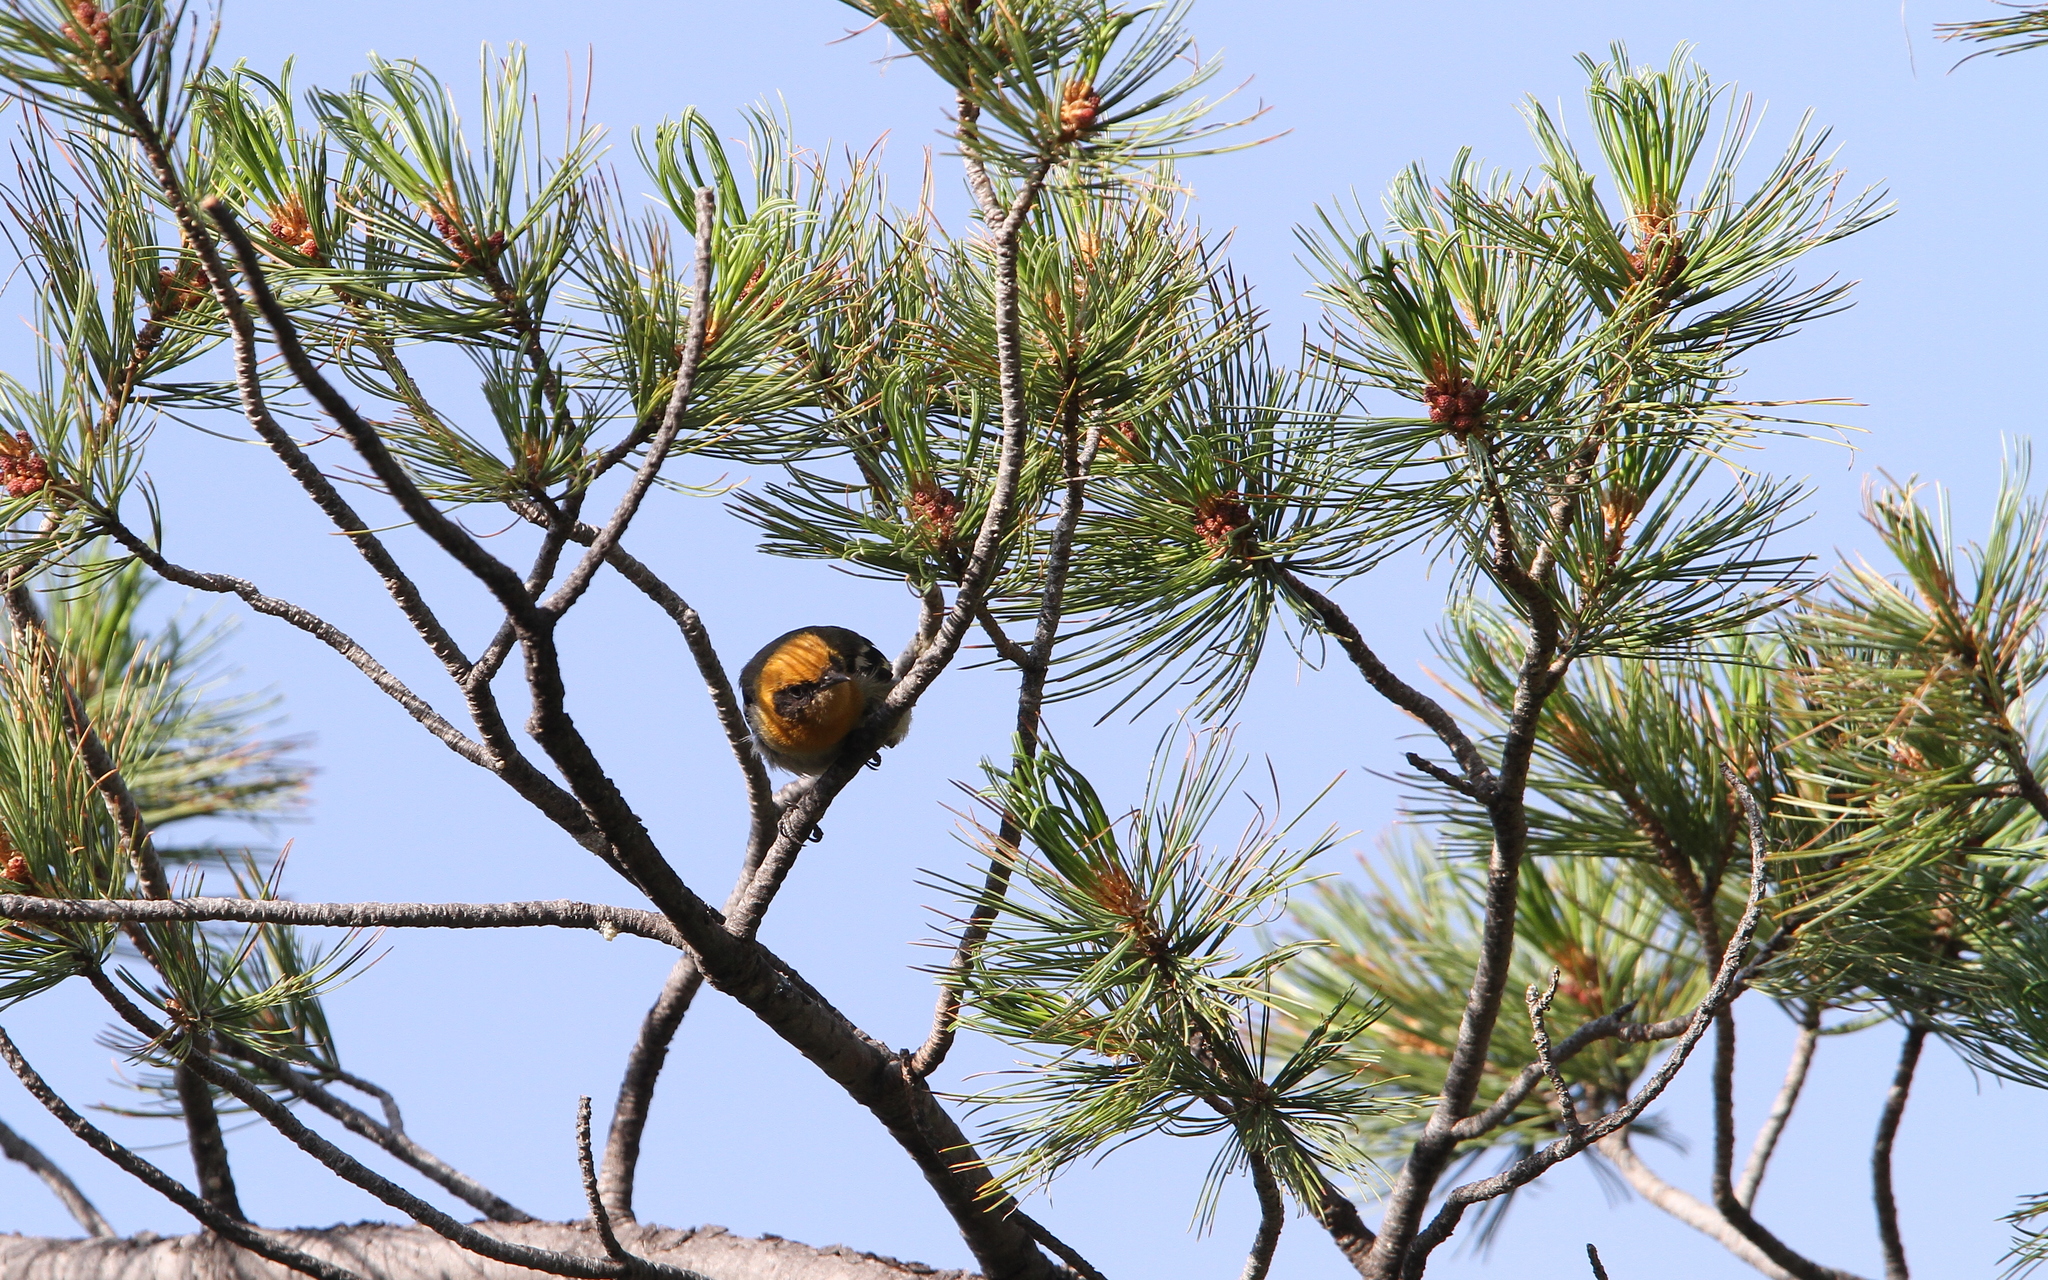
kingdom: Animalia
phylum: Chordata
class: Aves
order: Passeriformes
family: Peucedramidae
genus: Peucedramus
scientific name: Peucedramus taeniatus
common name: Olive warbler
